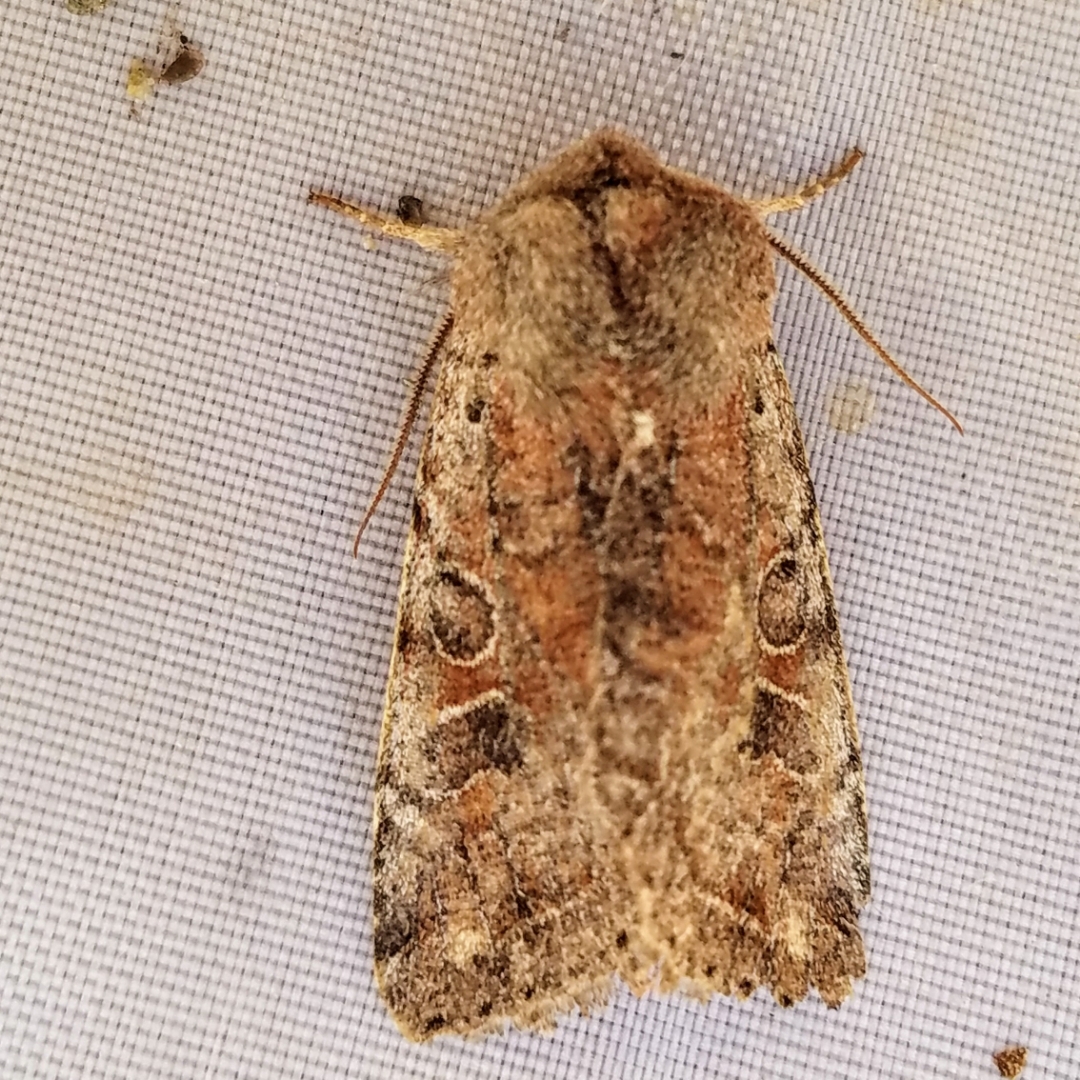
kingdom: Animalia
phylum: Arthropoda
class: Insecta
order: Lepidoptera
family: Noctuidae
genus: Orthosia
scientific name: Orthosia hibisci
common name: Green fruitworm
